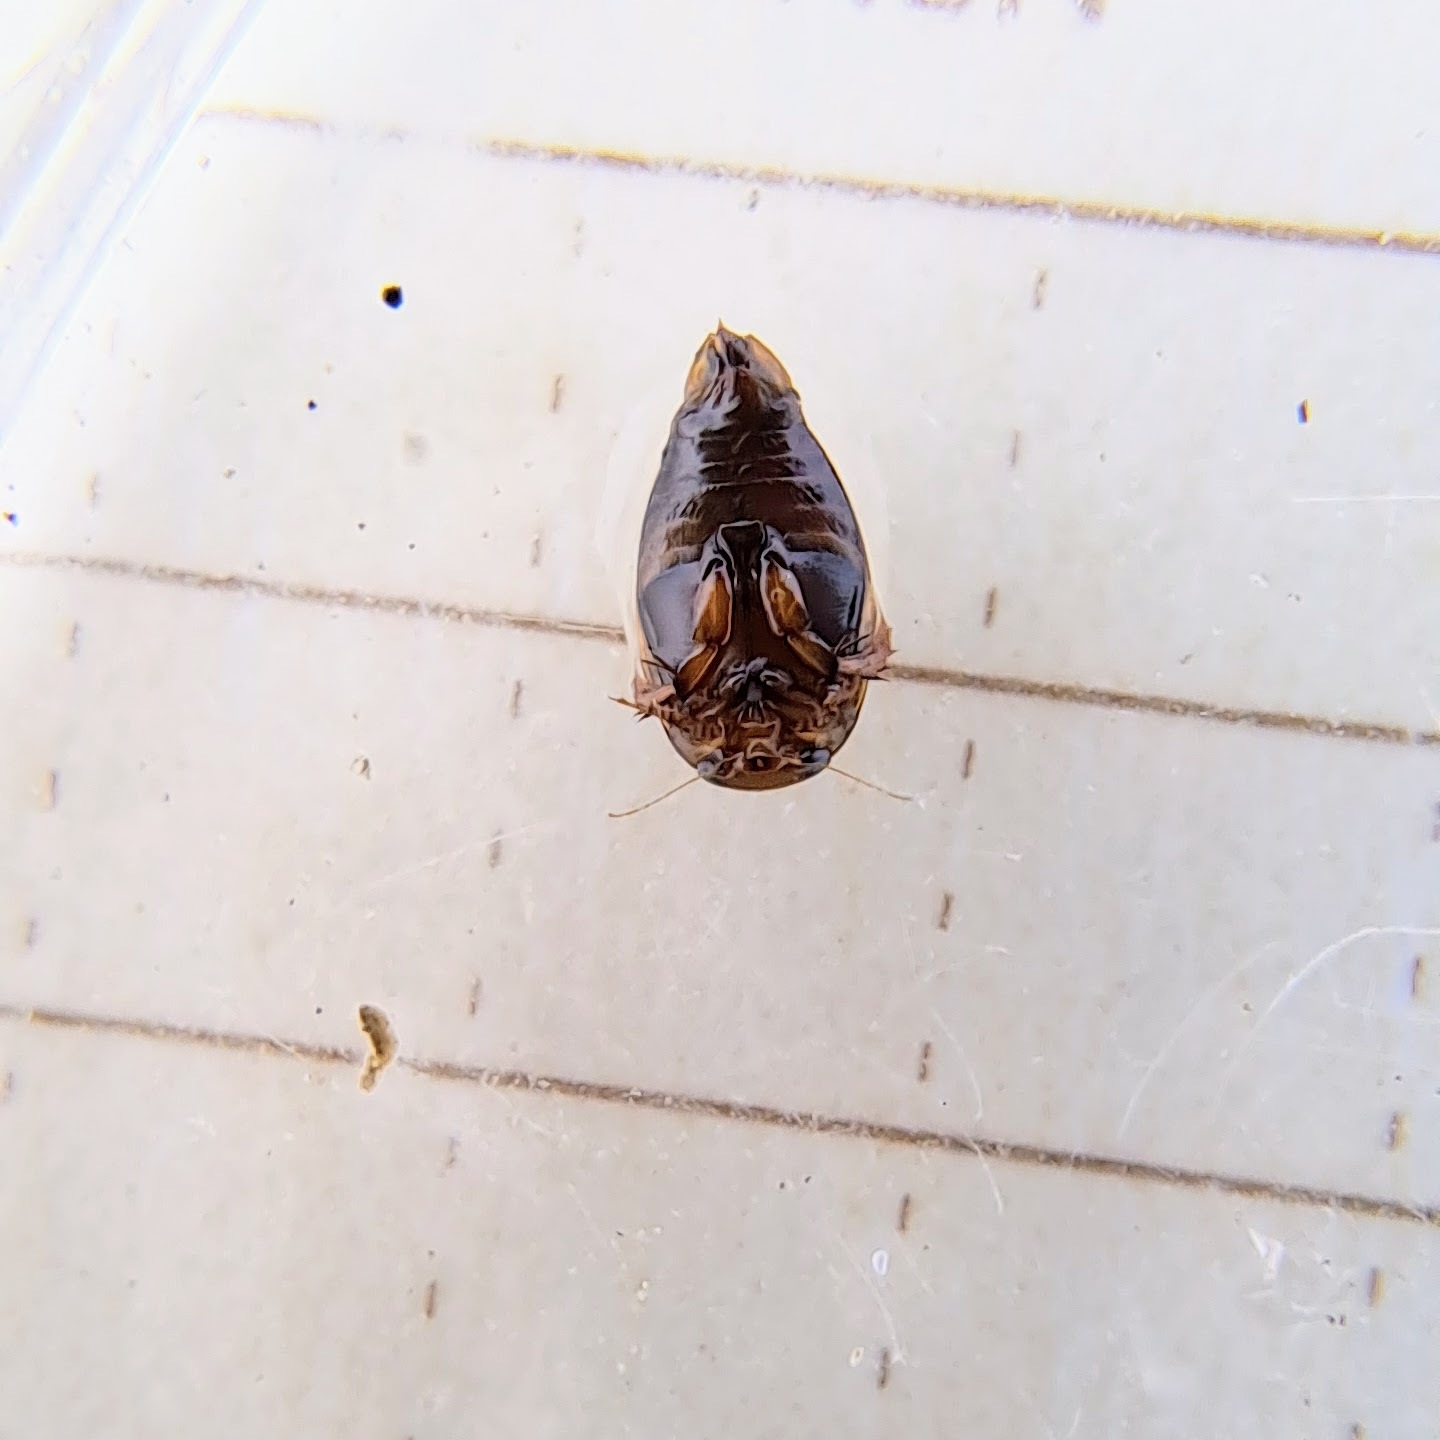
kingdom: Animalia
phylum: Arthropoda
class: Insecta
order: Coleoptera
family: Dytiscidae
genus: Laccophilus
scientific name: Laccophilus maculosus
